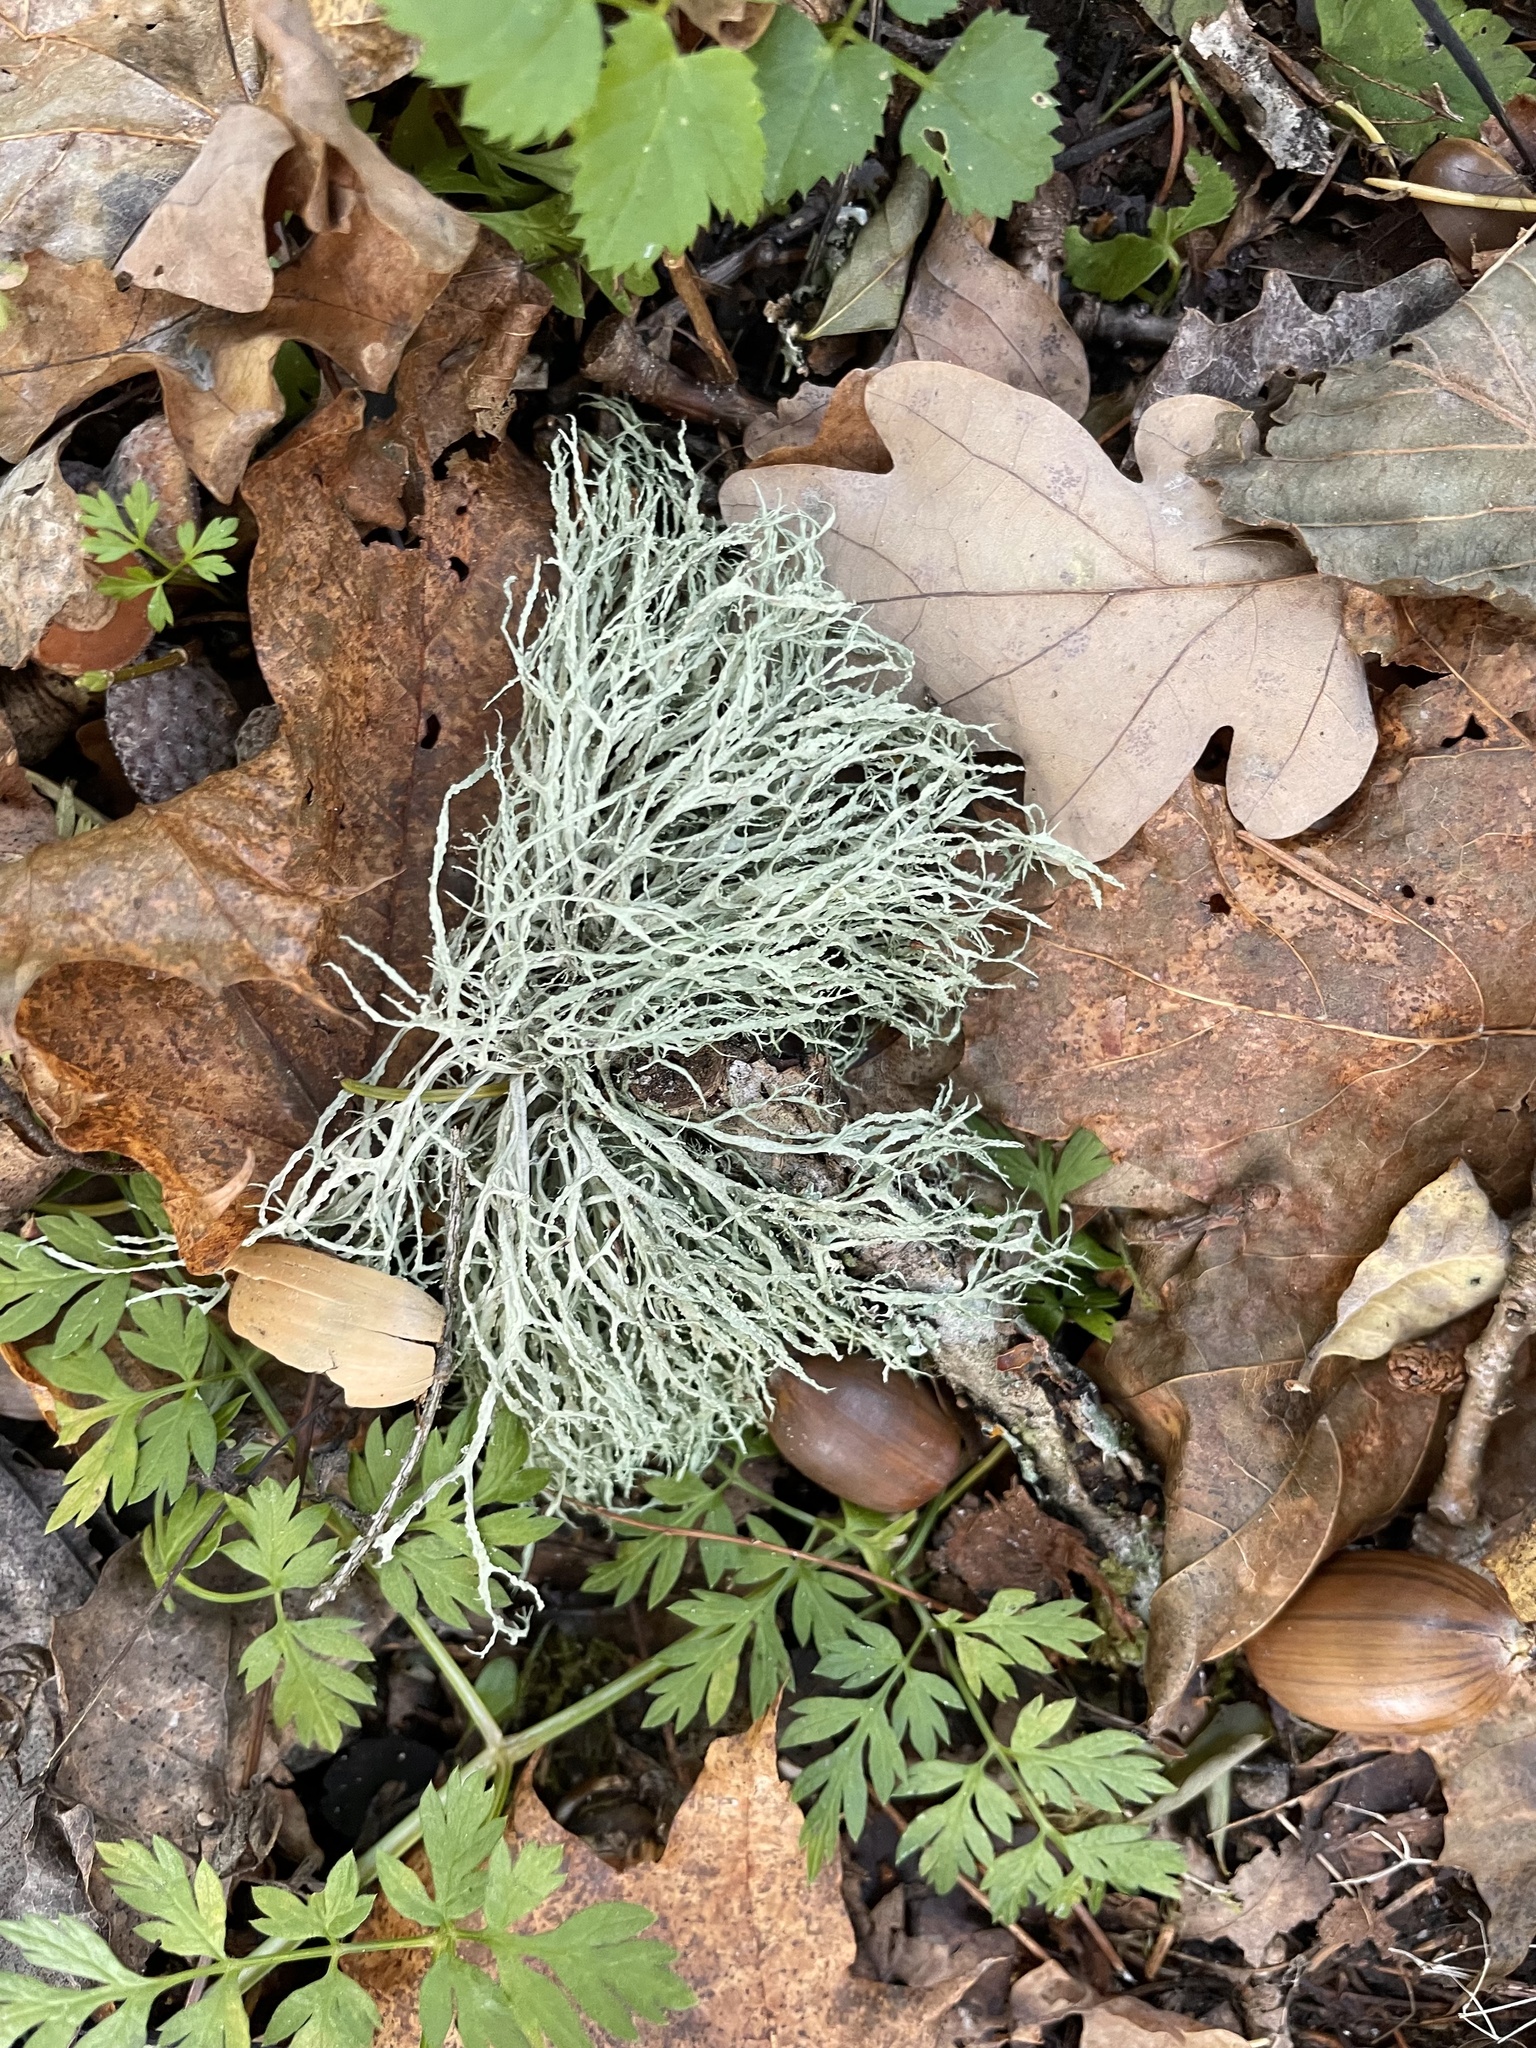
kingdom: Fungi
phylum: Ascomycota
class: Lecanoromycetes
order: Lecanorales
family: Ramalinaceae
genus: Ramalina
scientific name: Ramalina farinacea
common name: Farinose cartilage lichen
